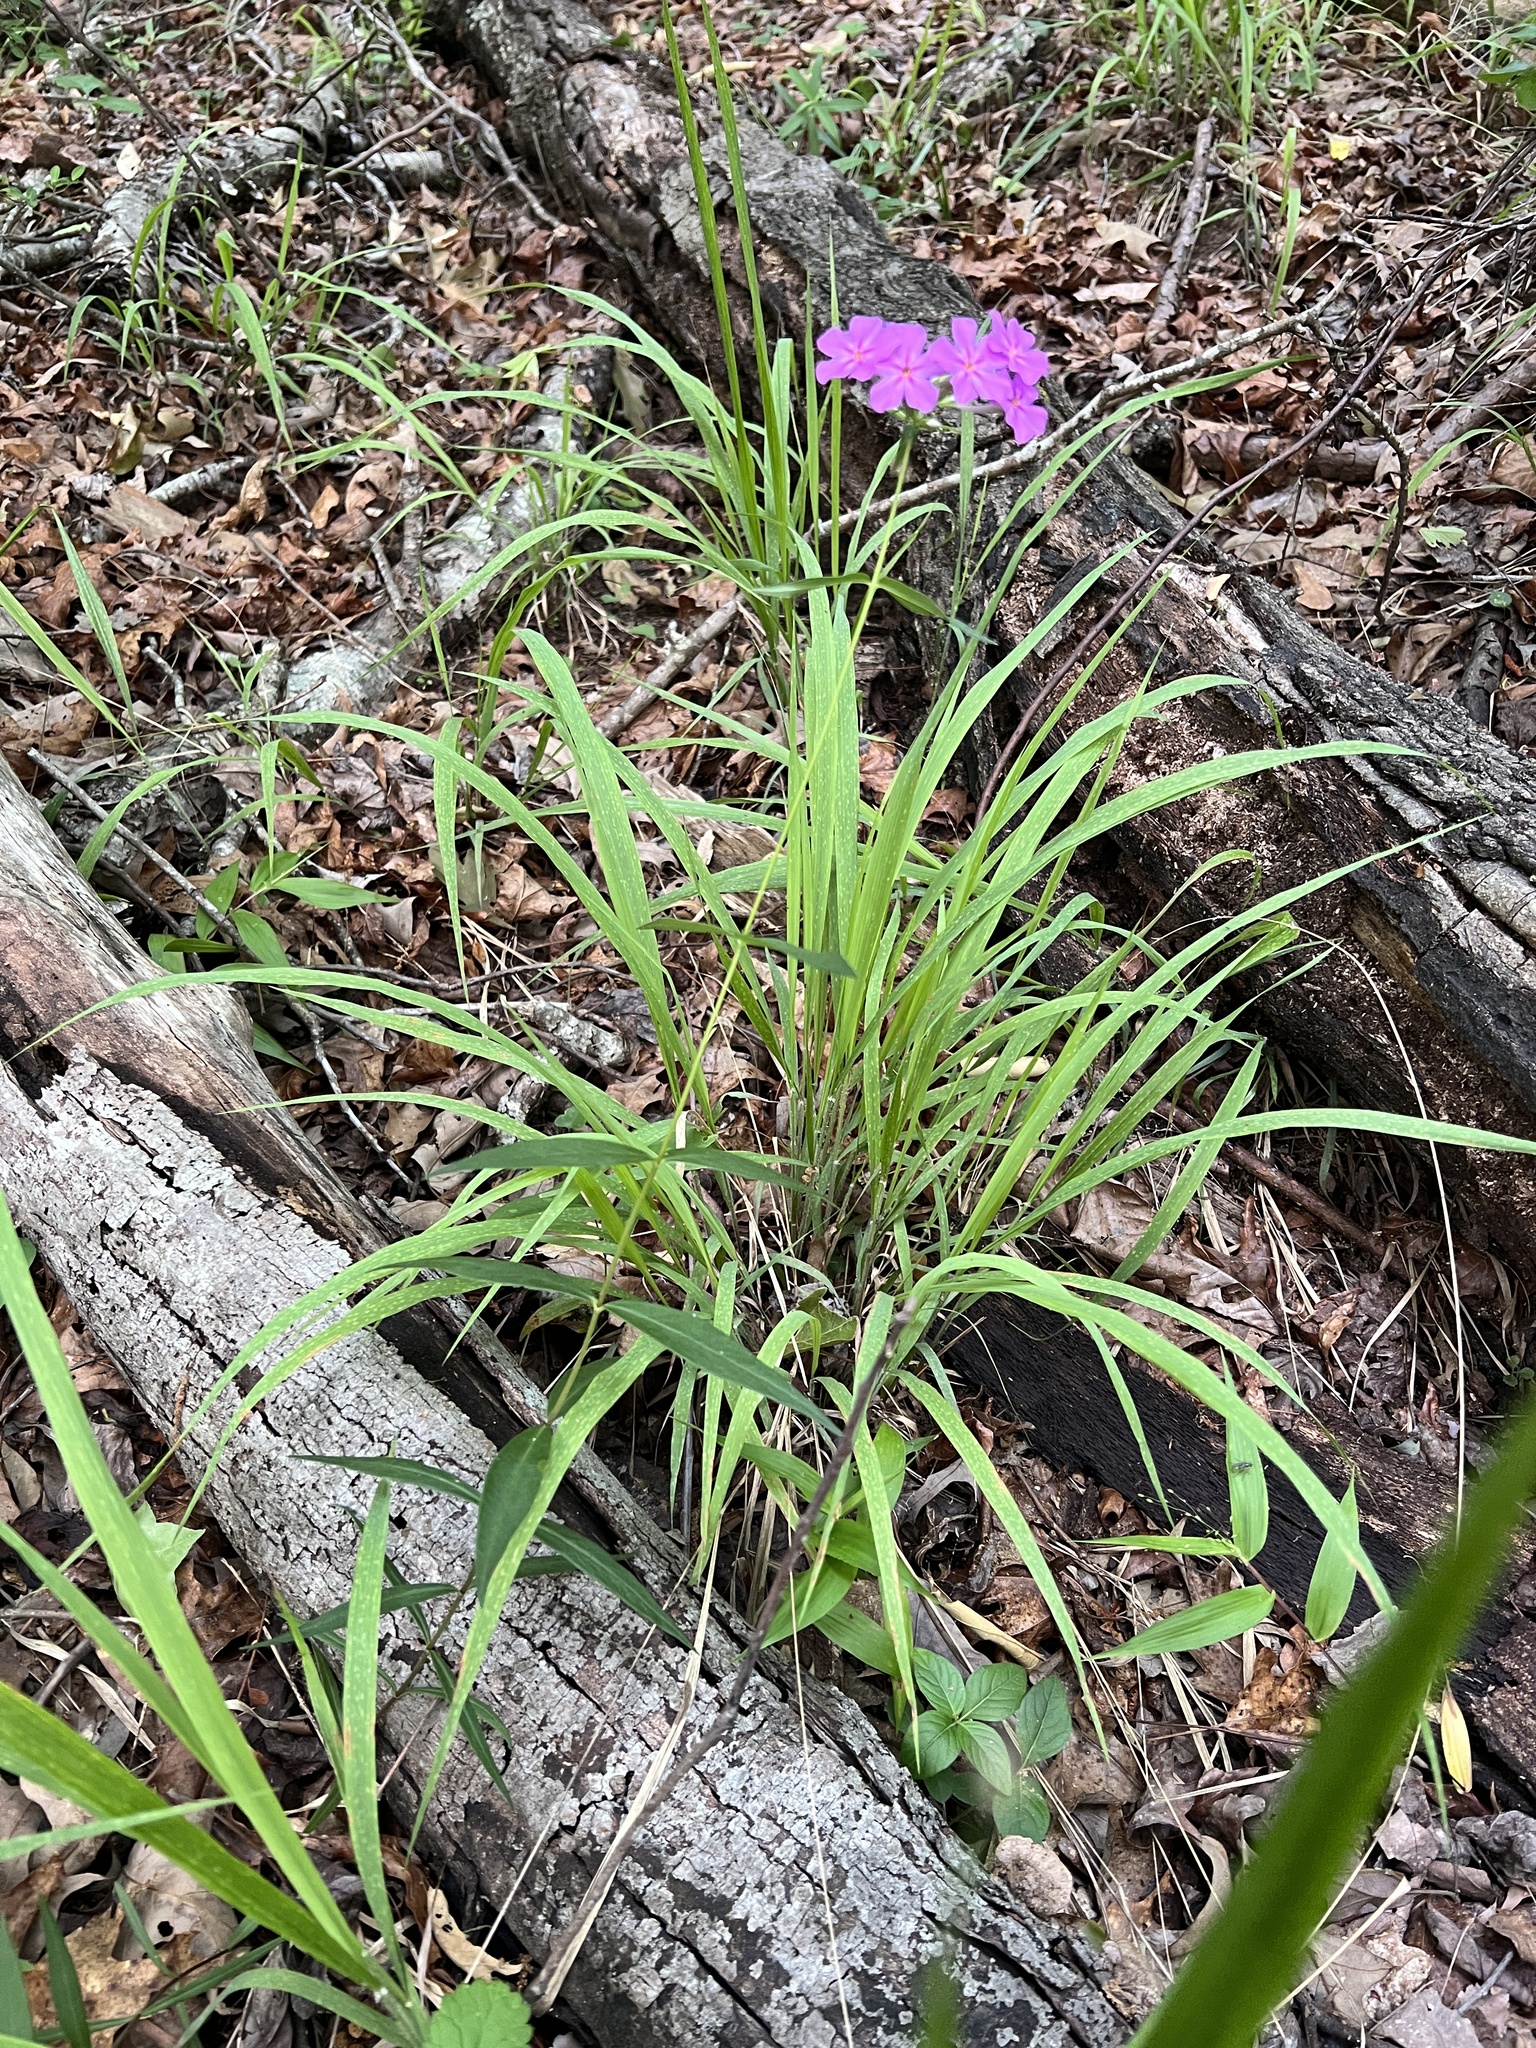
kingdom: Plantae
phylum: Tracheophyta
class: Magnoliopsida
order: Ericales
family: Polemoniaceae
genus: Phlox
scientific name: Phlox carolina
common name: Thick-leaf phlox
